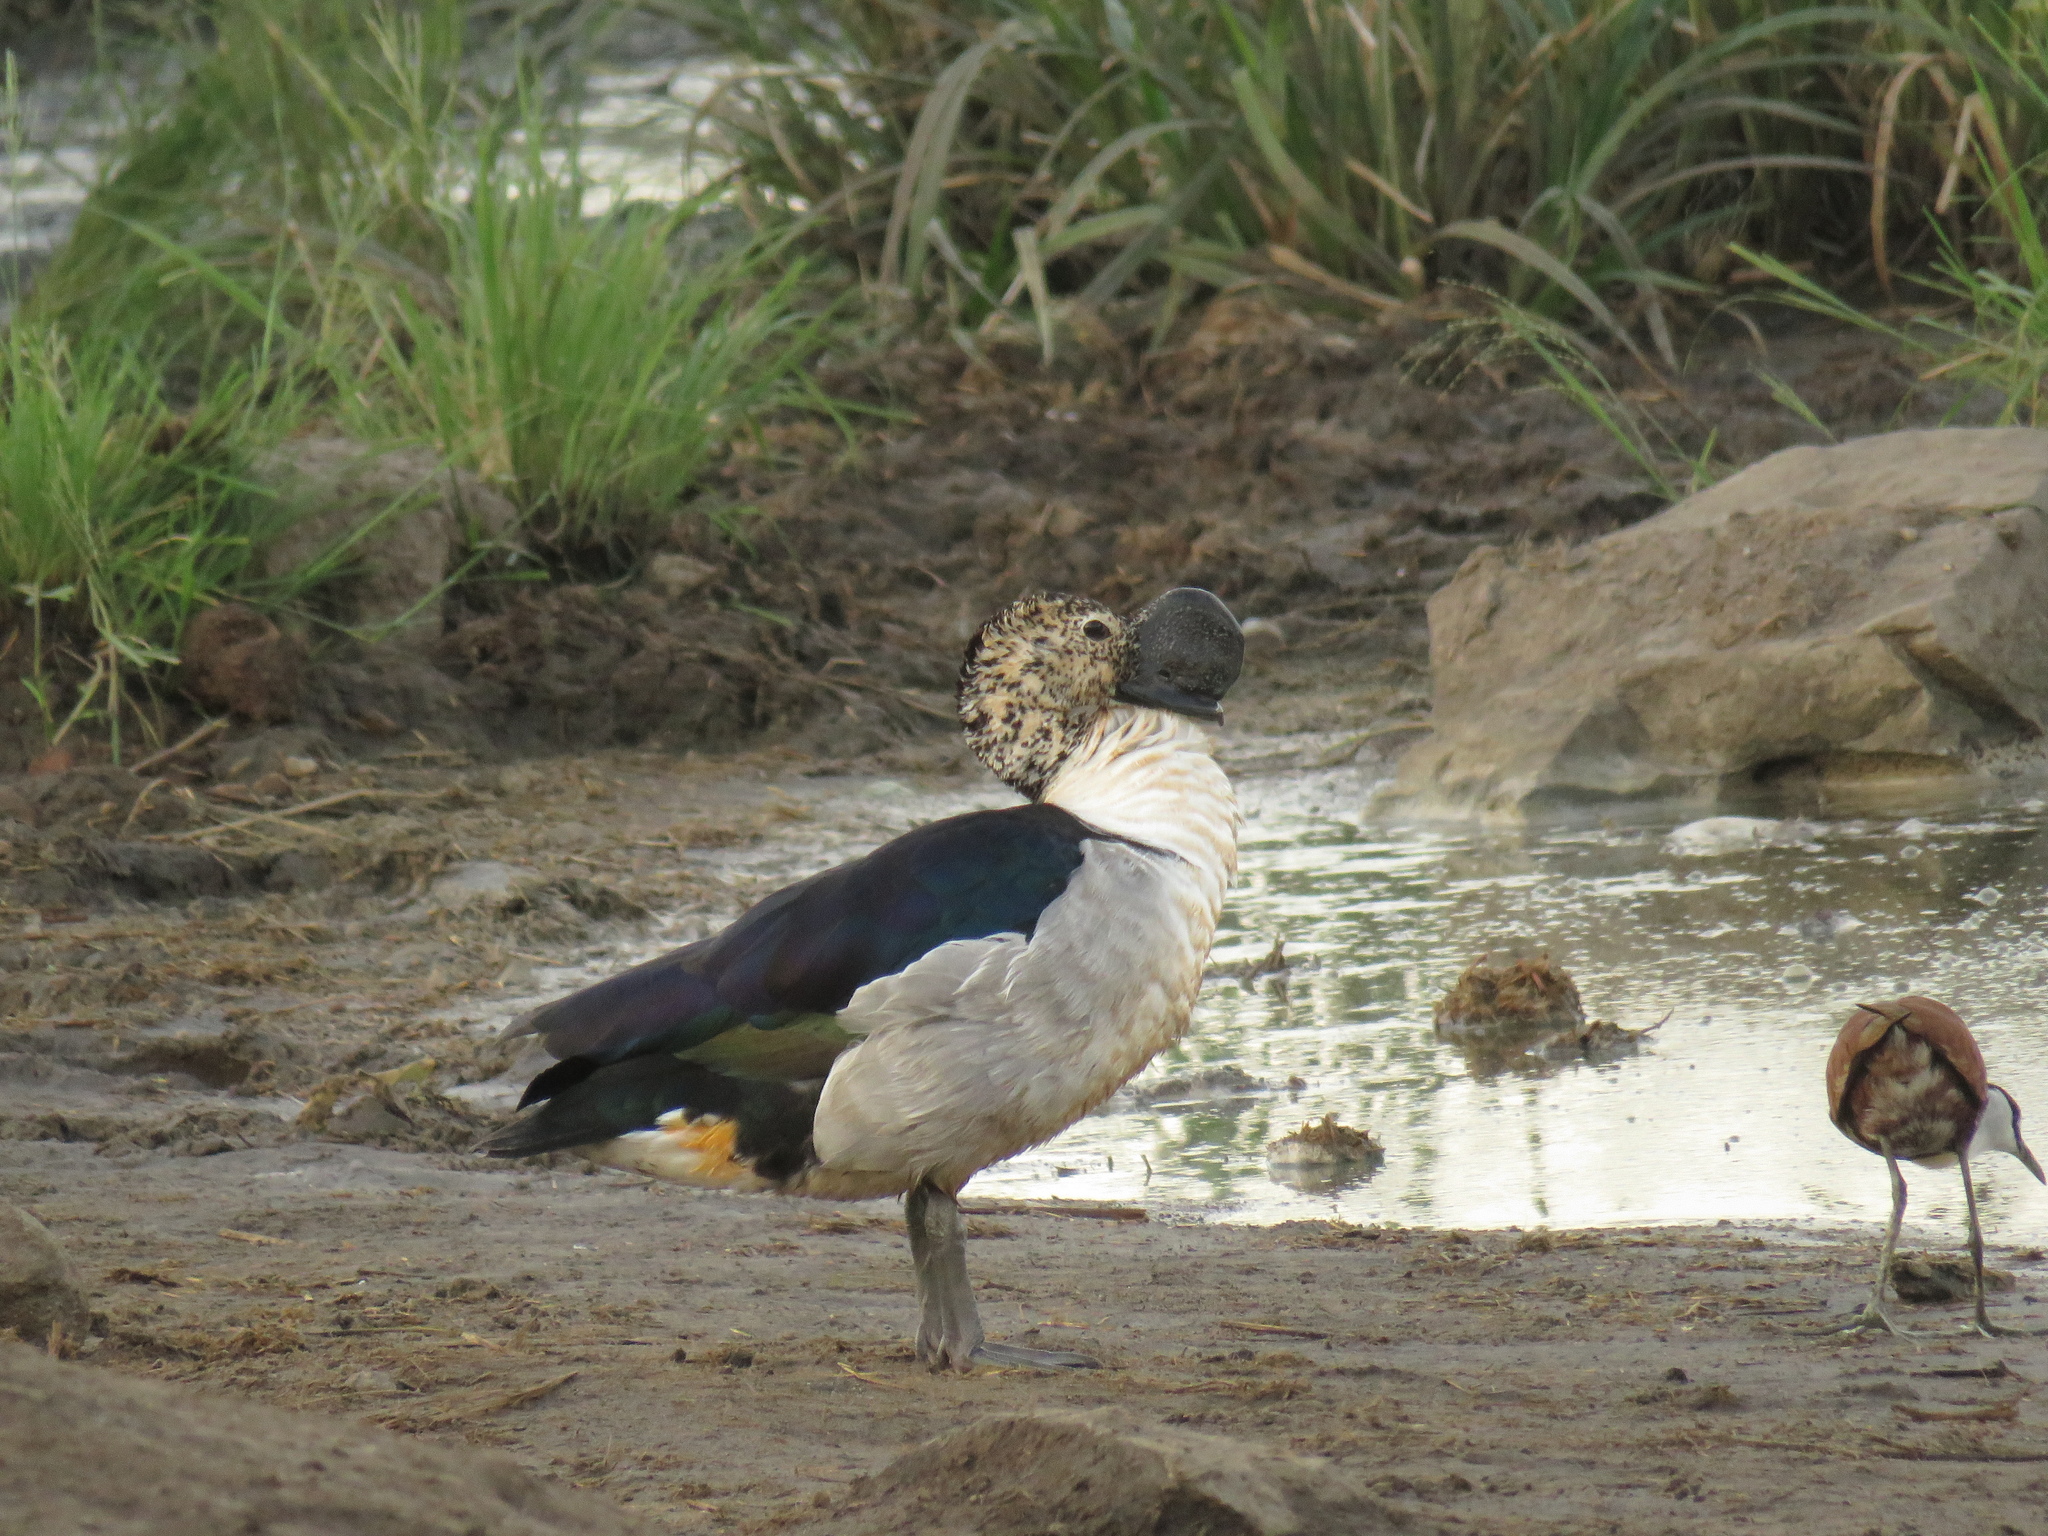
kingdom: Animalia
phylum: Chordata
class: Aves
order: Anseriformes
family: Anatidae
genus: Sarkidiornis
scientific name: Sarkidiornis melanotos
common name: Comb duck
